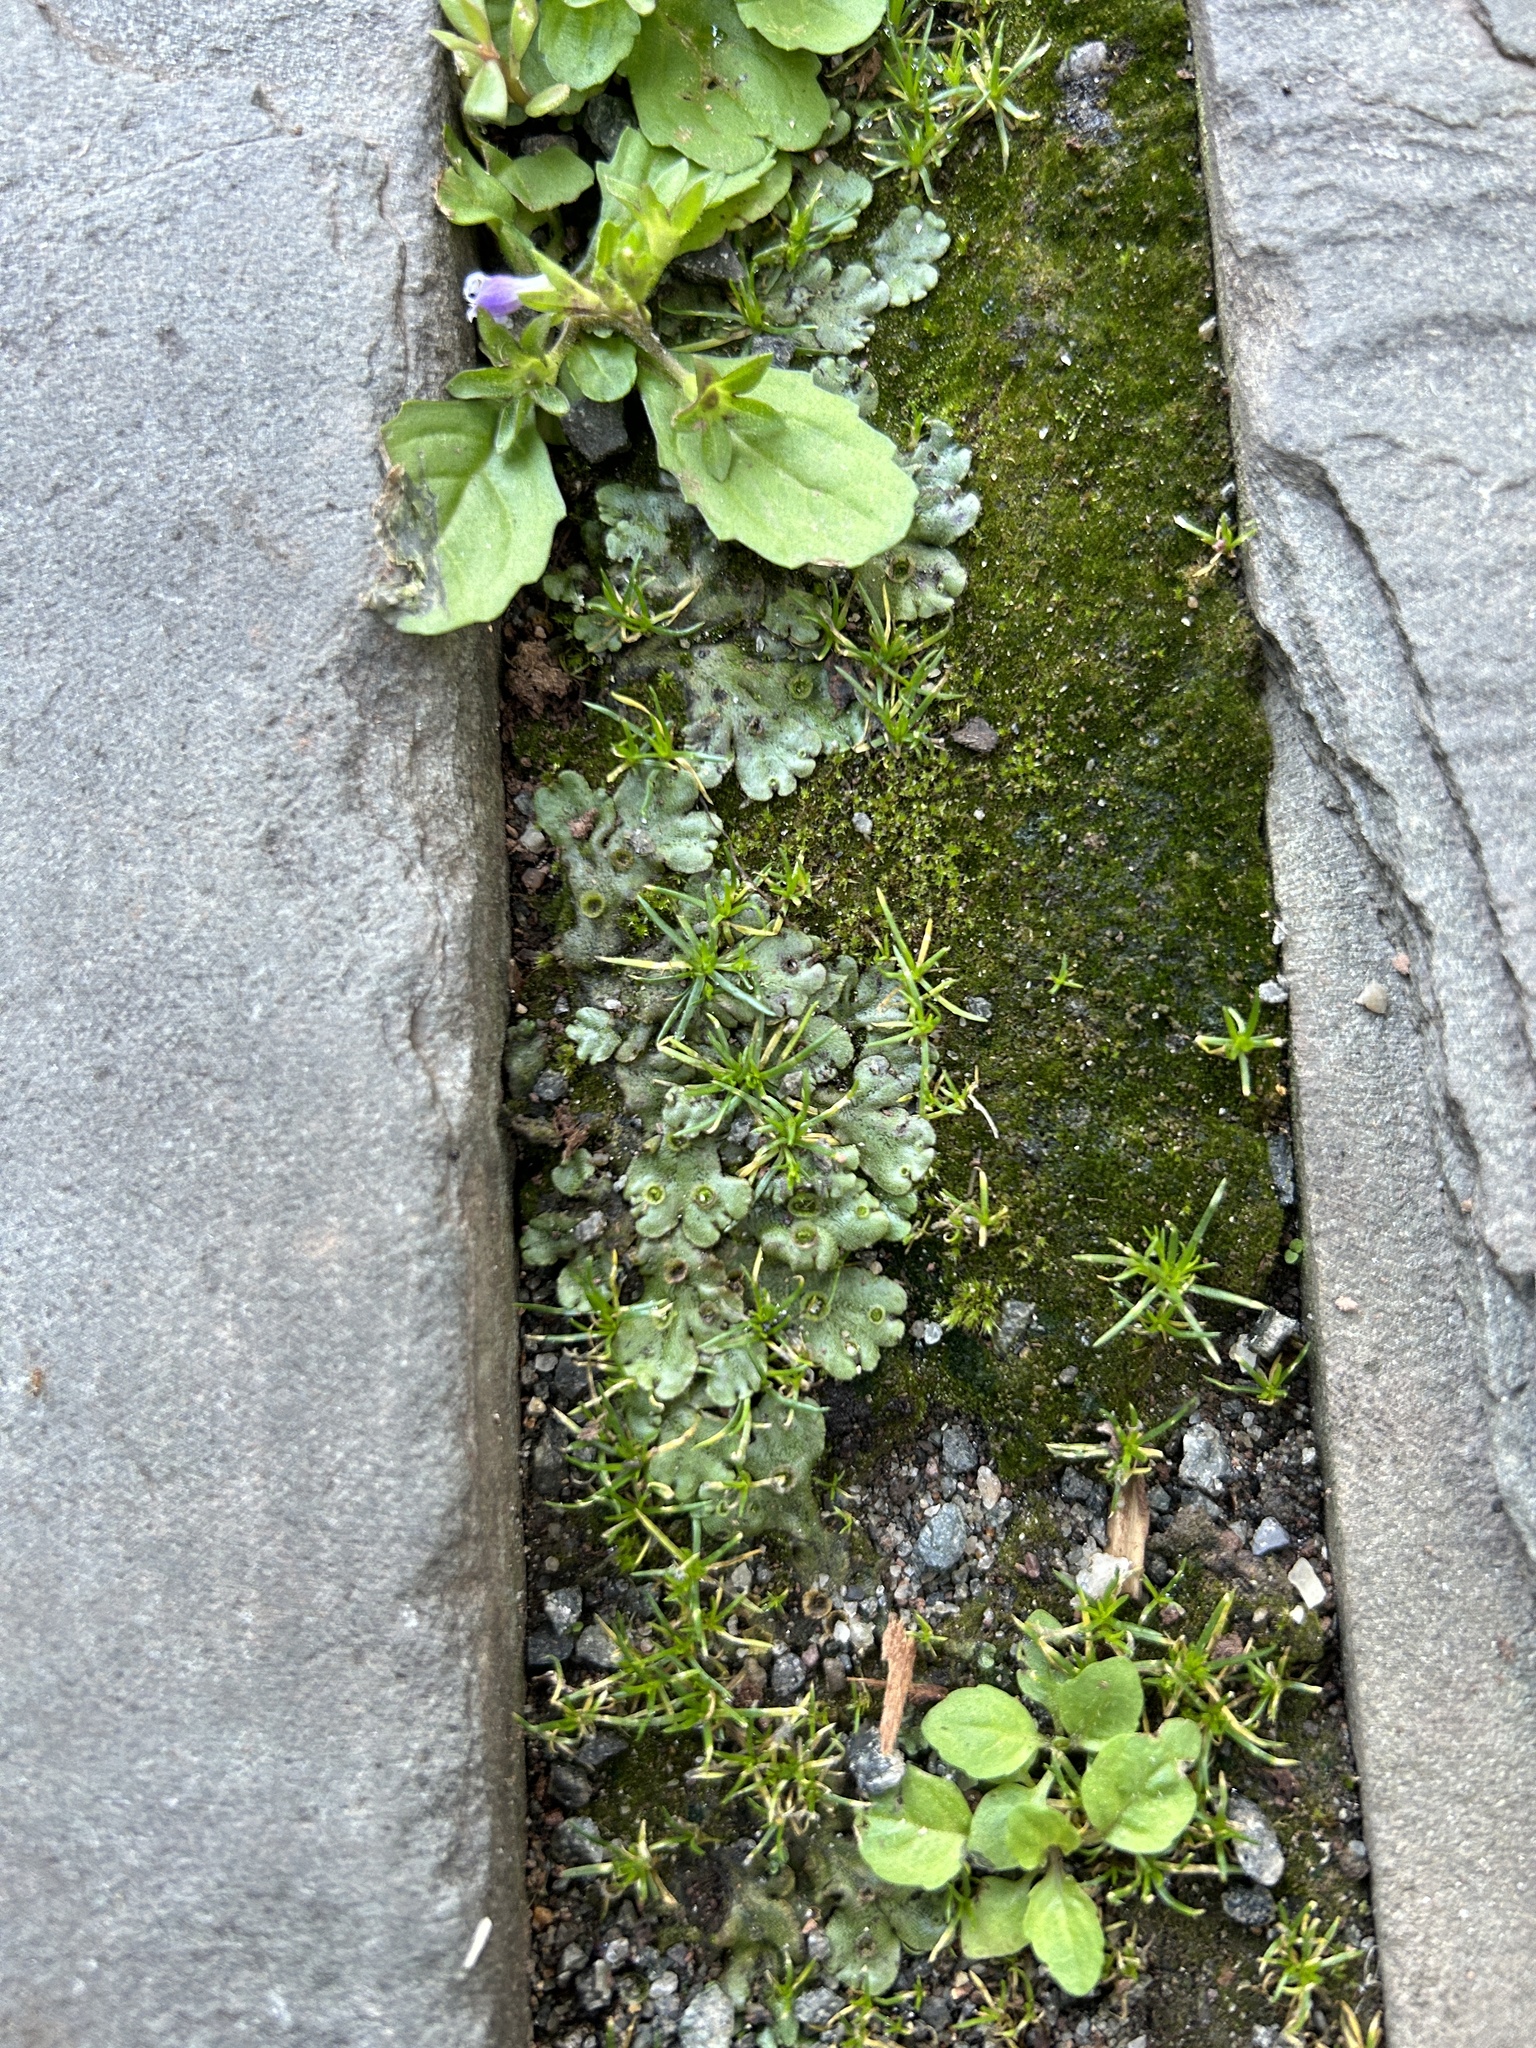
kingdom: Plantae
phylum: Marchantiophyta
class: Marchantiopsida
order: Marchantiales
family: Marchantiaceae
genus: Marchantia
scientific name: Marchantia polymorpha
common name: Common liverwort
